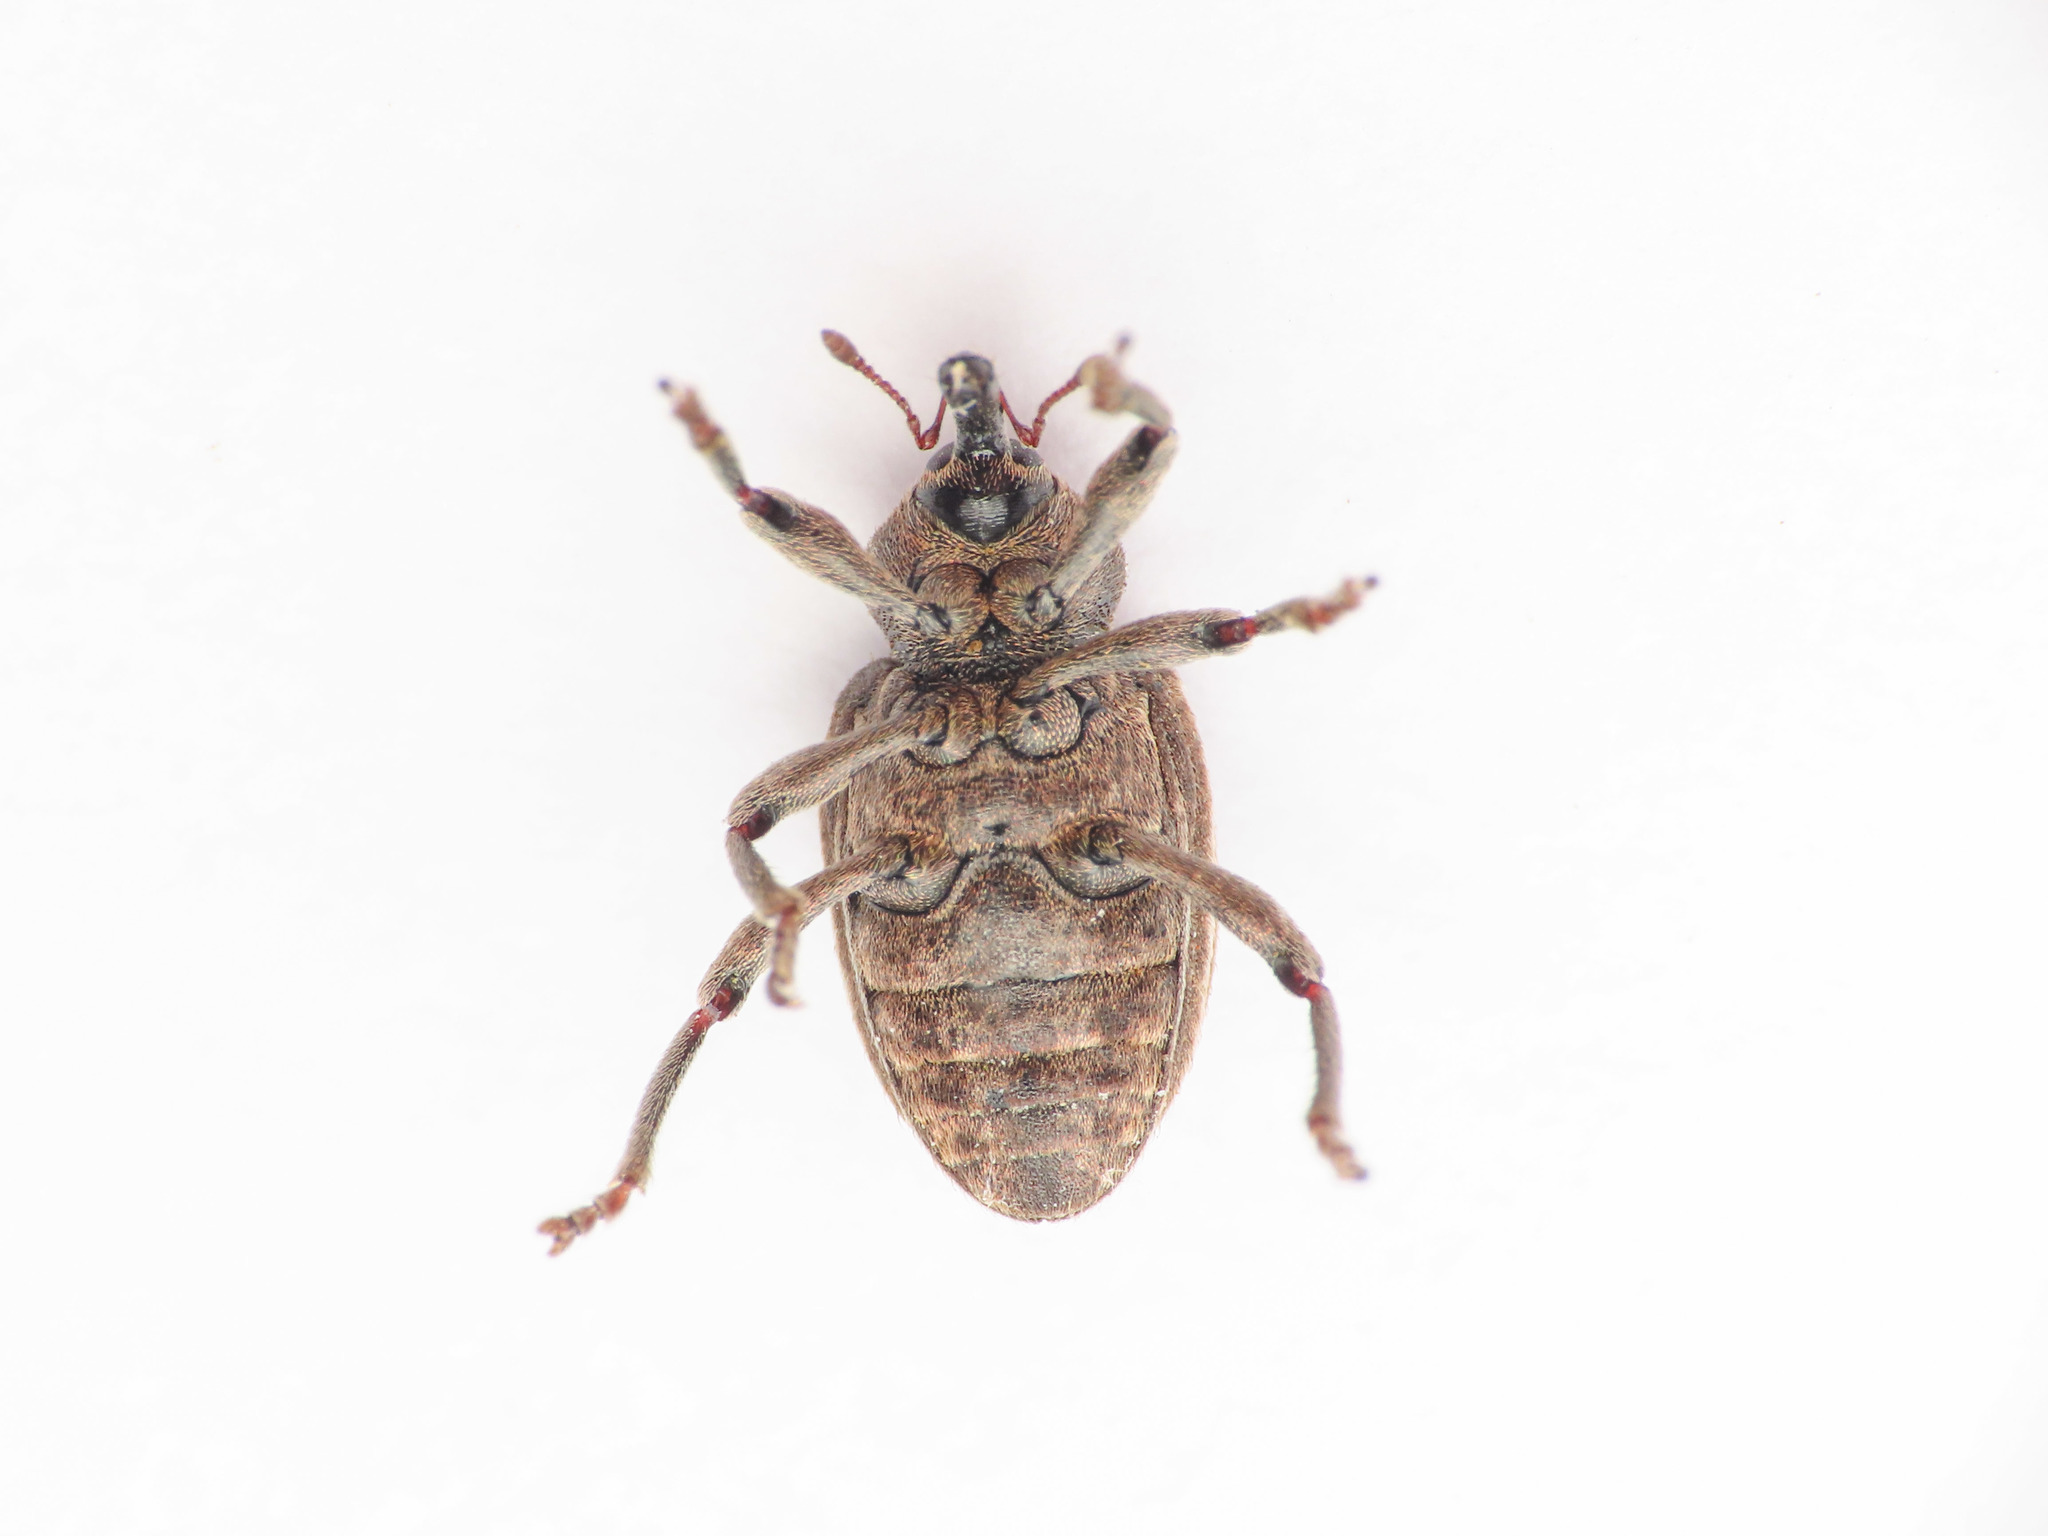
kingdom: Animalia
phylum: Arthropoda
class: Insecta
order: Coleoptera
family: Curculionidae
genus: Phytonomus
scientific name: Phytonomus striatus
